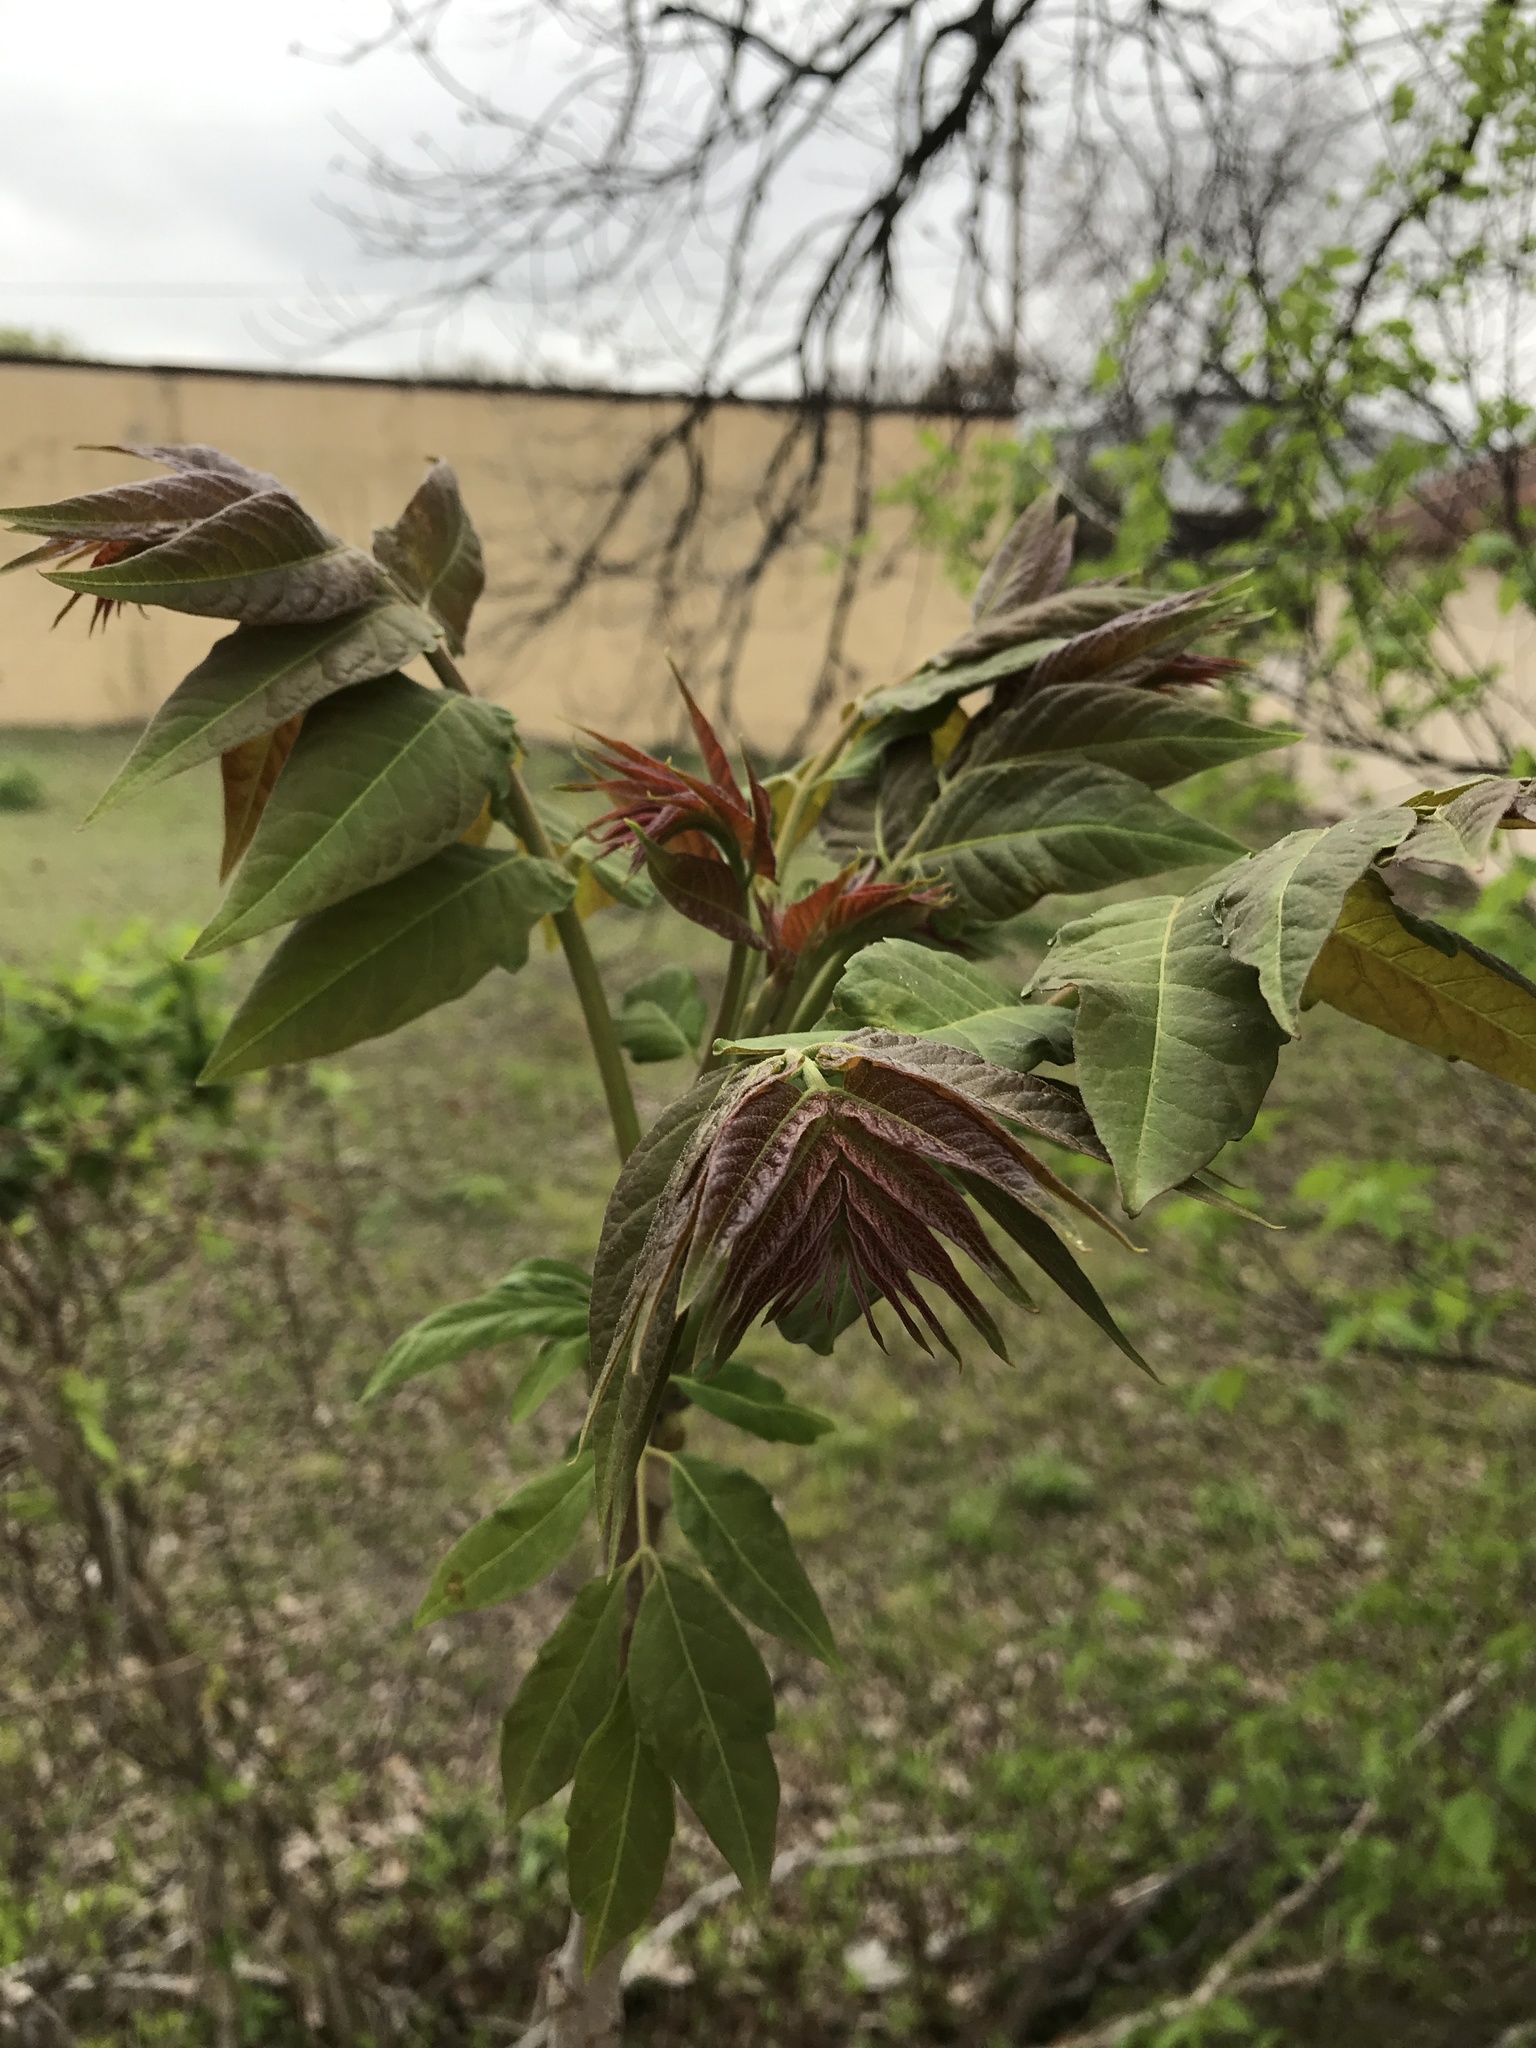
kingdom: Plantae
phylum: Tracheophyta
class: Magnoliopsida
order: Sapindales
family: Simaroubaceae
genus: Ailanthus
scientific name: Ailanthus altissima
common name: Tree-of-heaven
